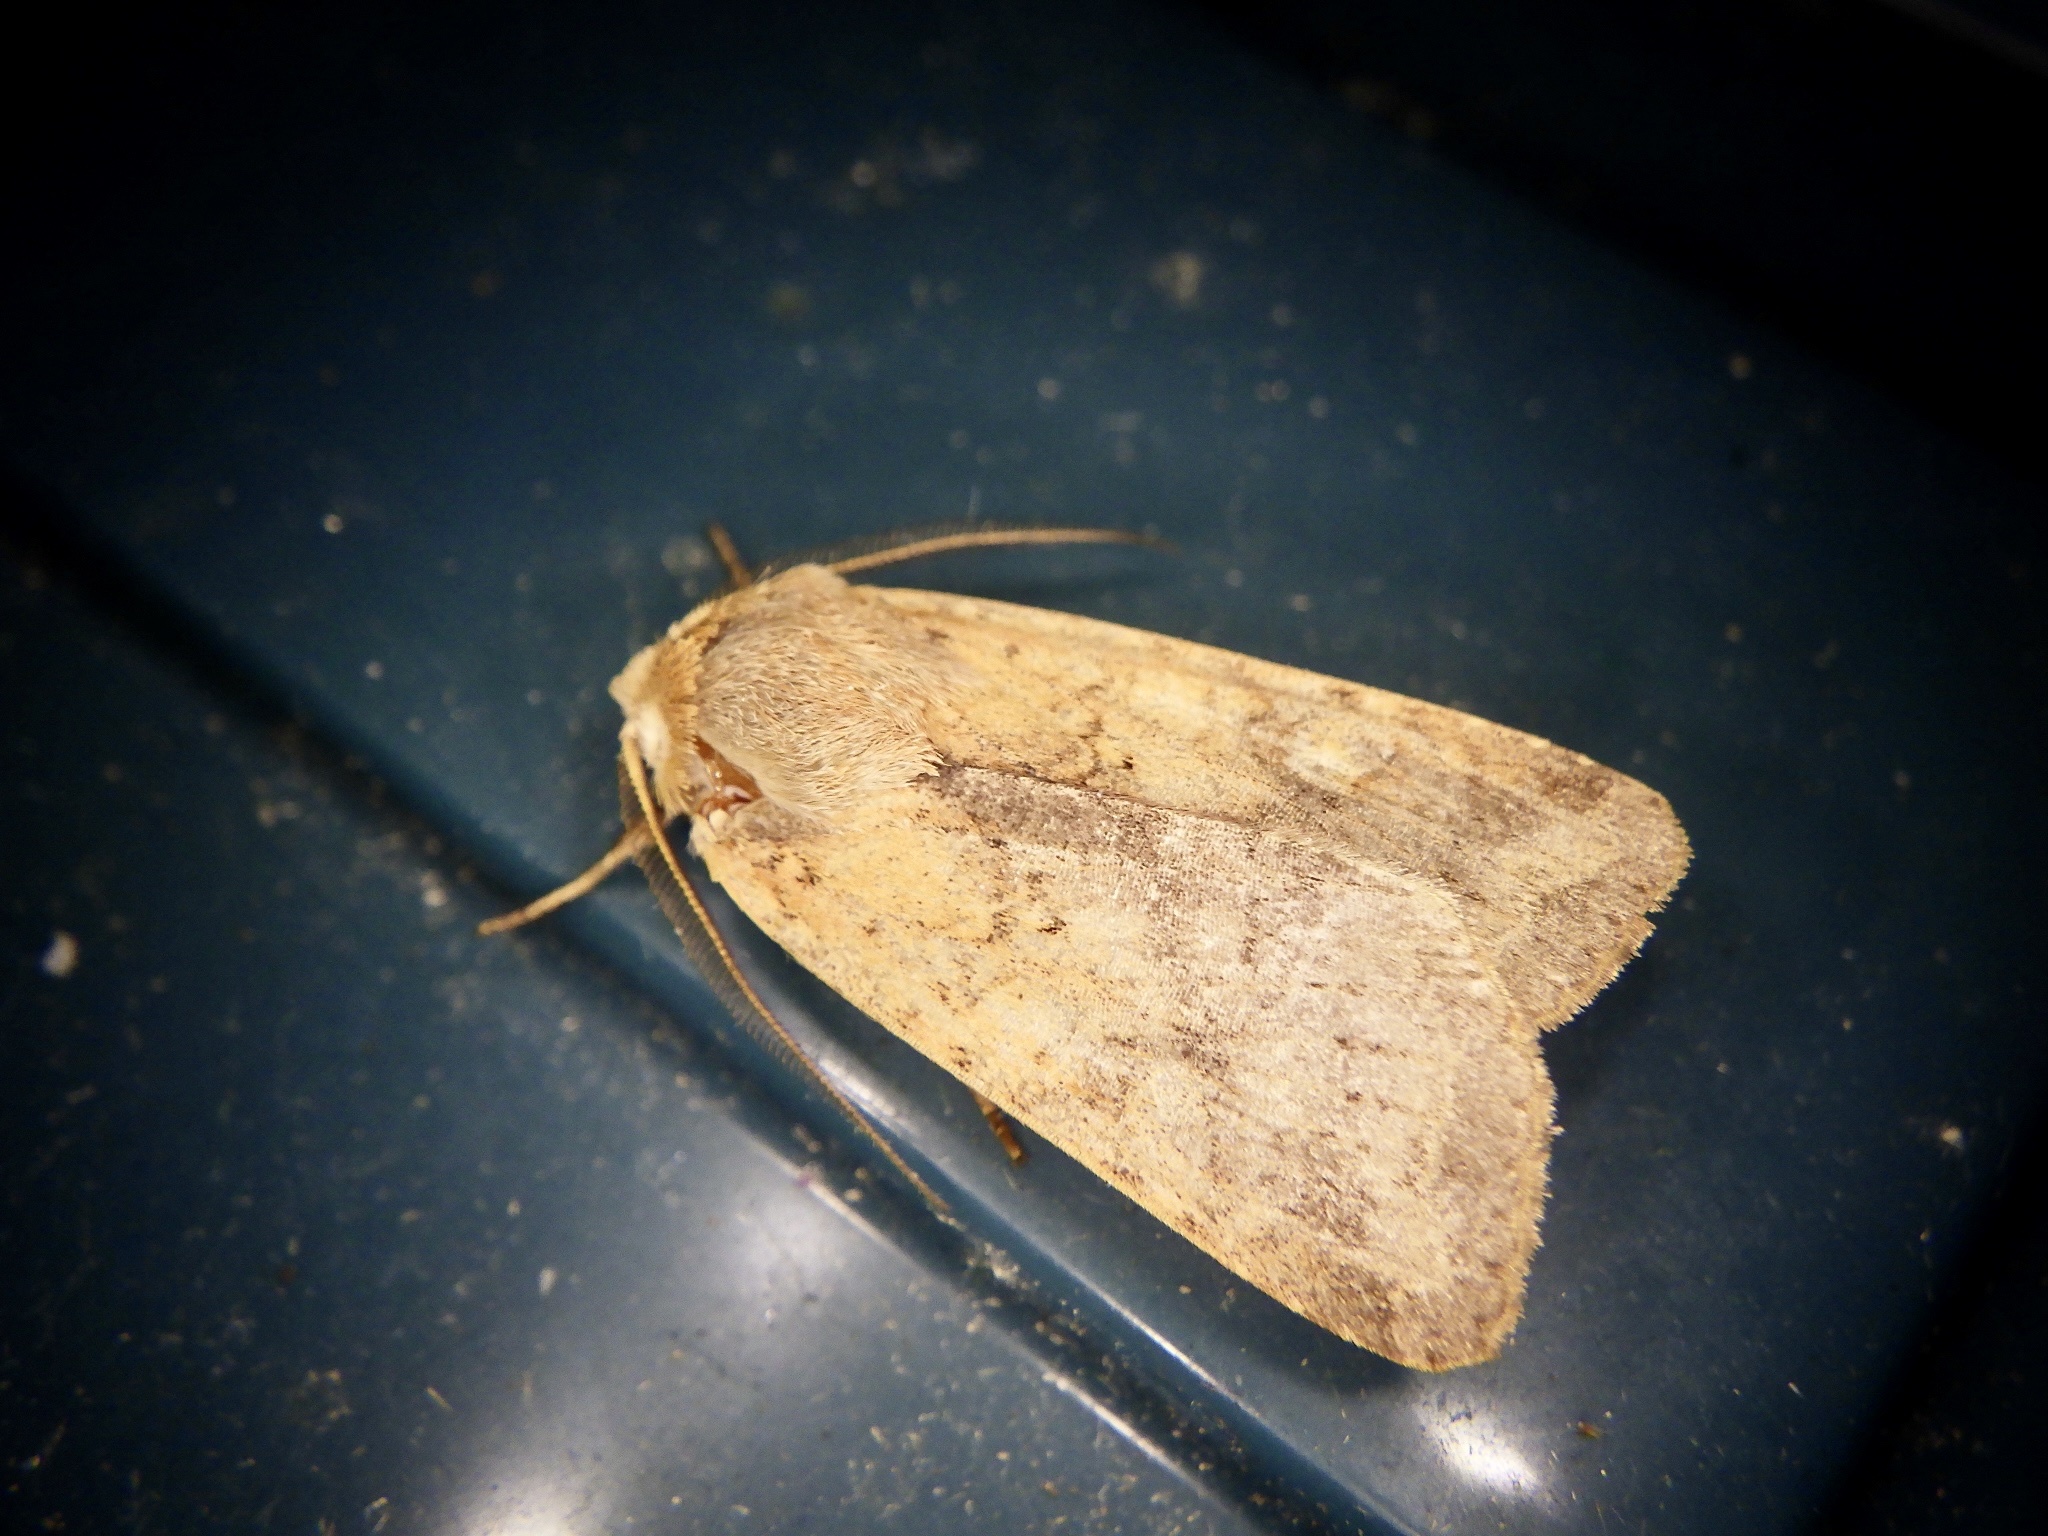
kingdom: Animalia
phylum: Arthropoda
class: Insecta
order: Lepidoptera
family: Noctuidae
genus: Diarsia
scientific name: Diarsia deparca
